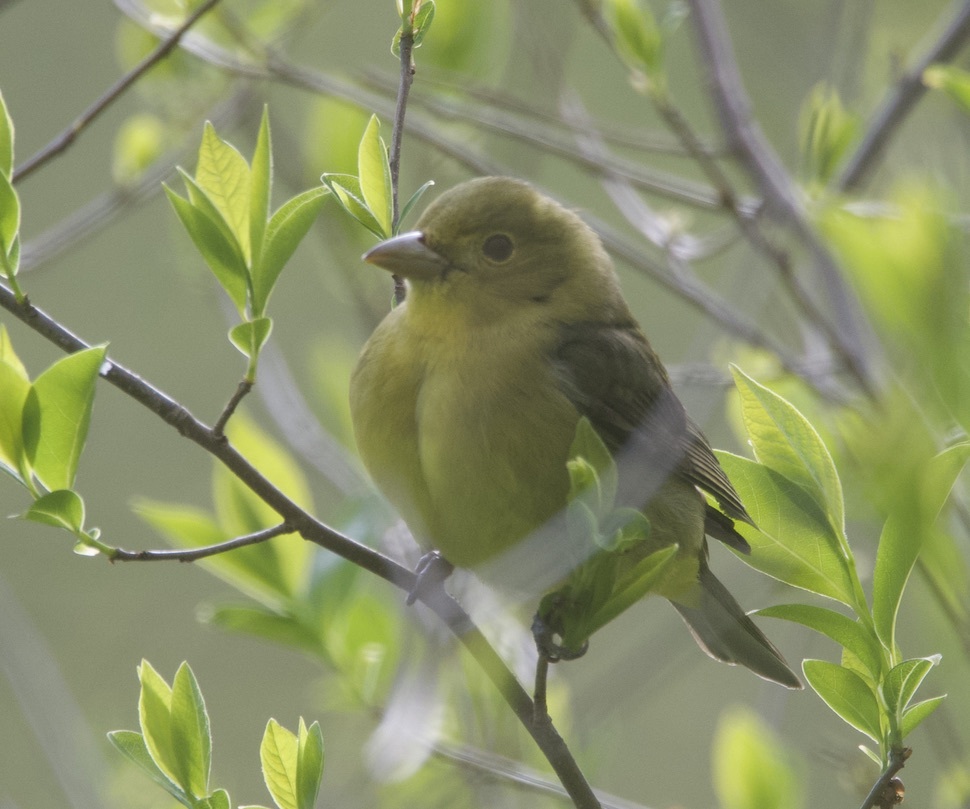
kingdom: Animalia
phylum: Chordata
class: Aves
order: Passeriformes
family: Cardinalidae
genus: Piranga
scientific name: Piranga olivacea
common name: Scarlet tanager
